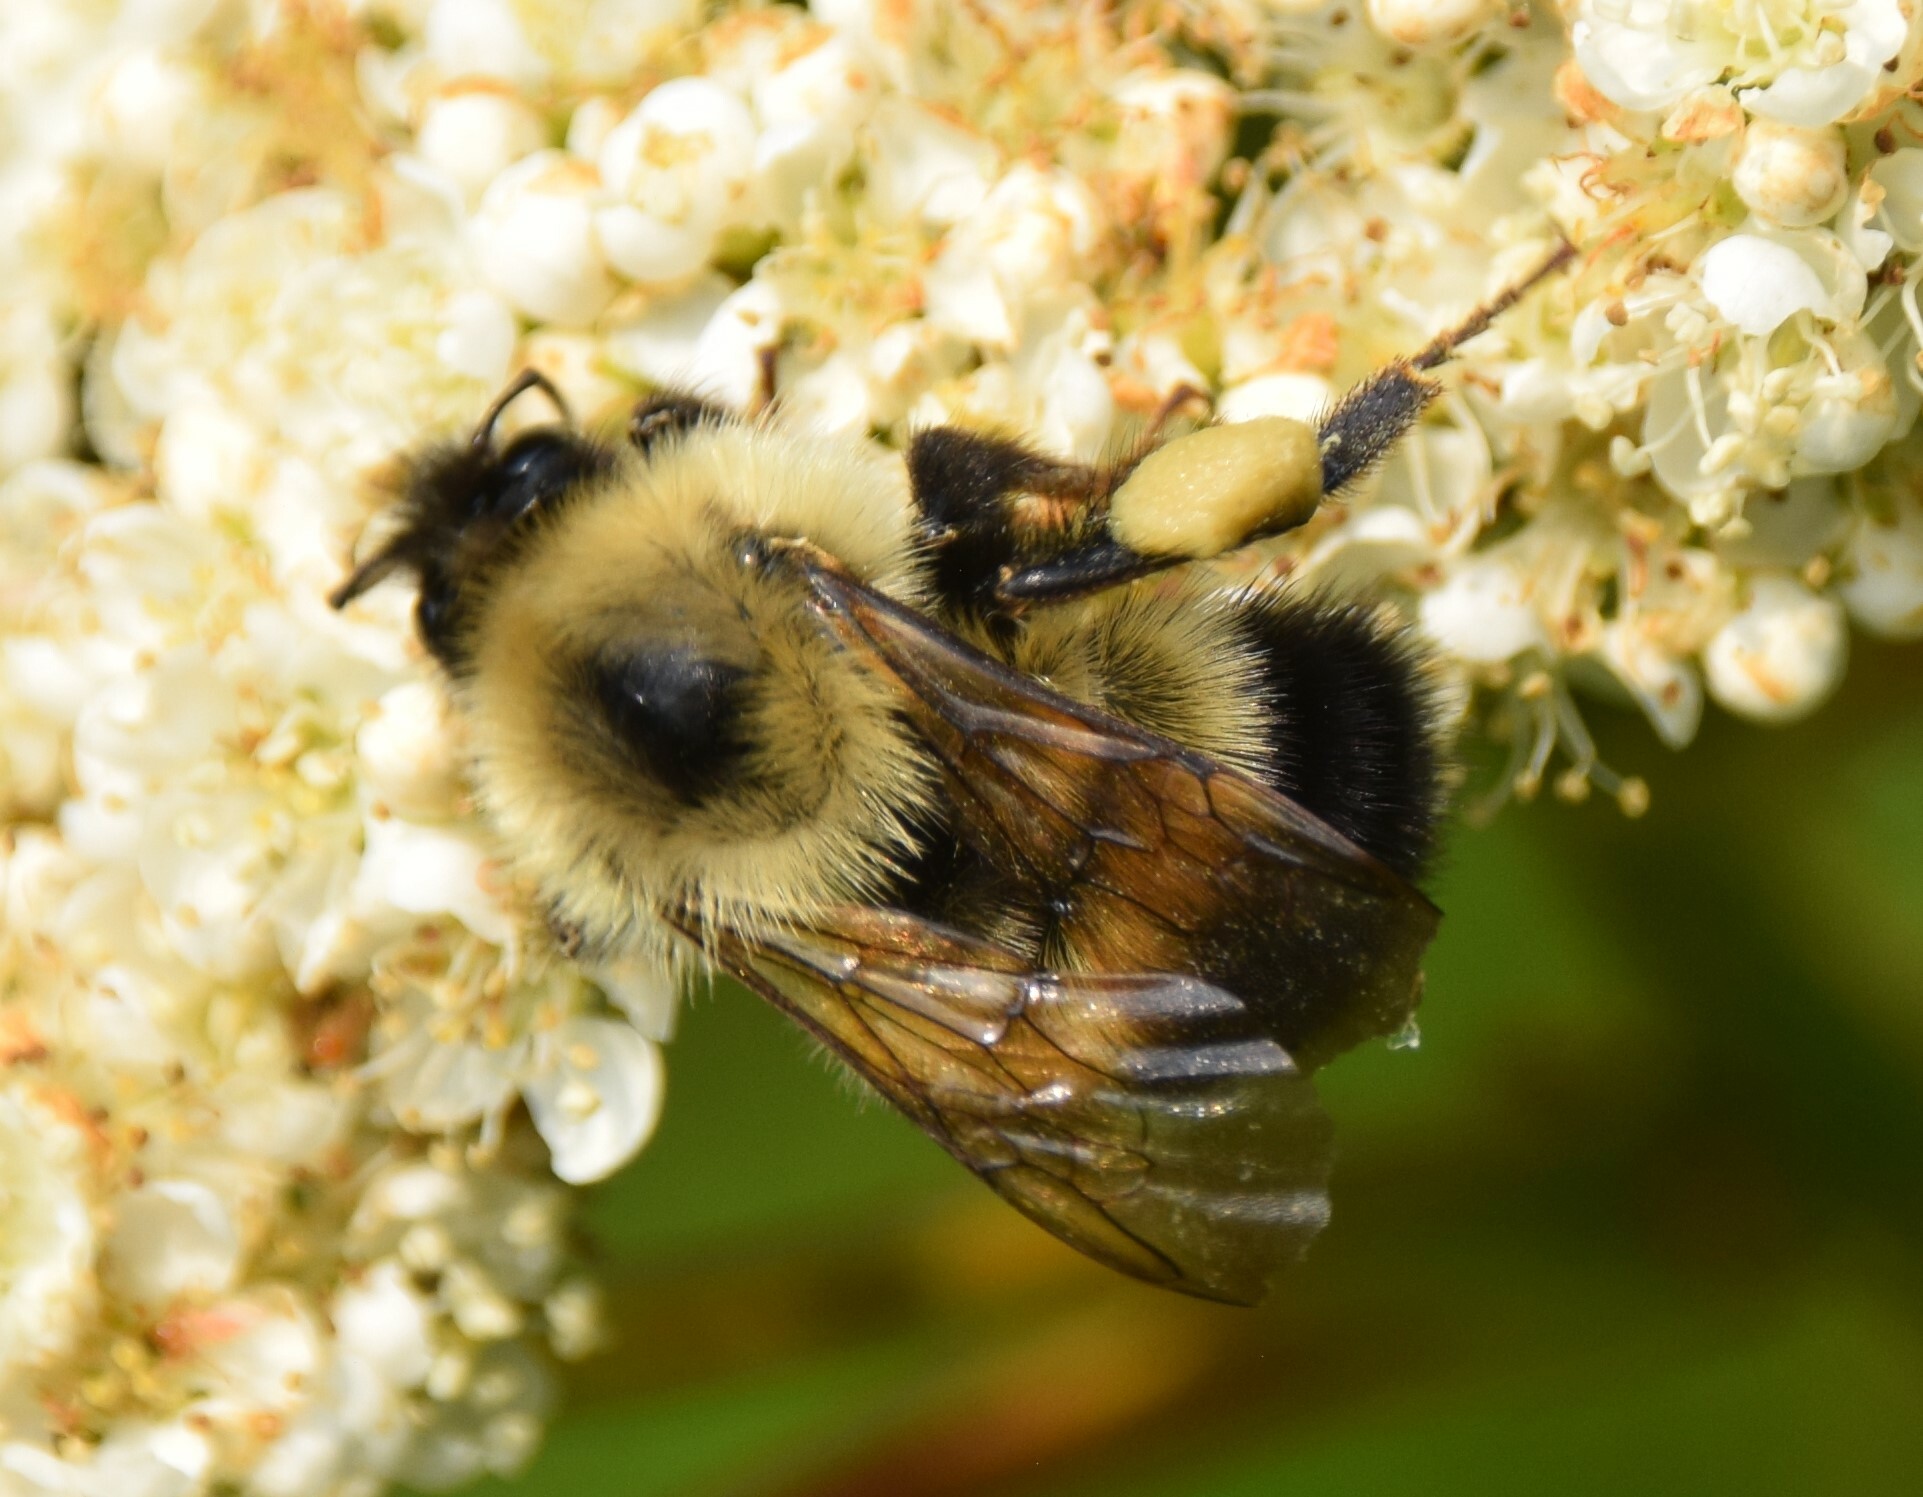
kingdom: Animalia
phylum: Arthropoda
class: Insecta
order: Hymenoptera
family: Apidae
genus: Pyrobombus
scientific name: Pyrobombus
